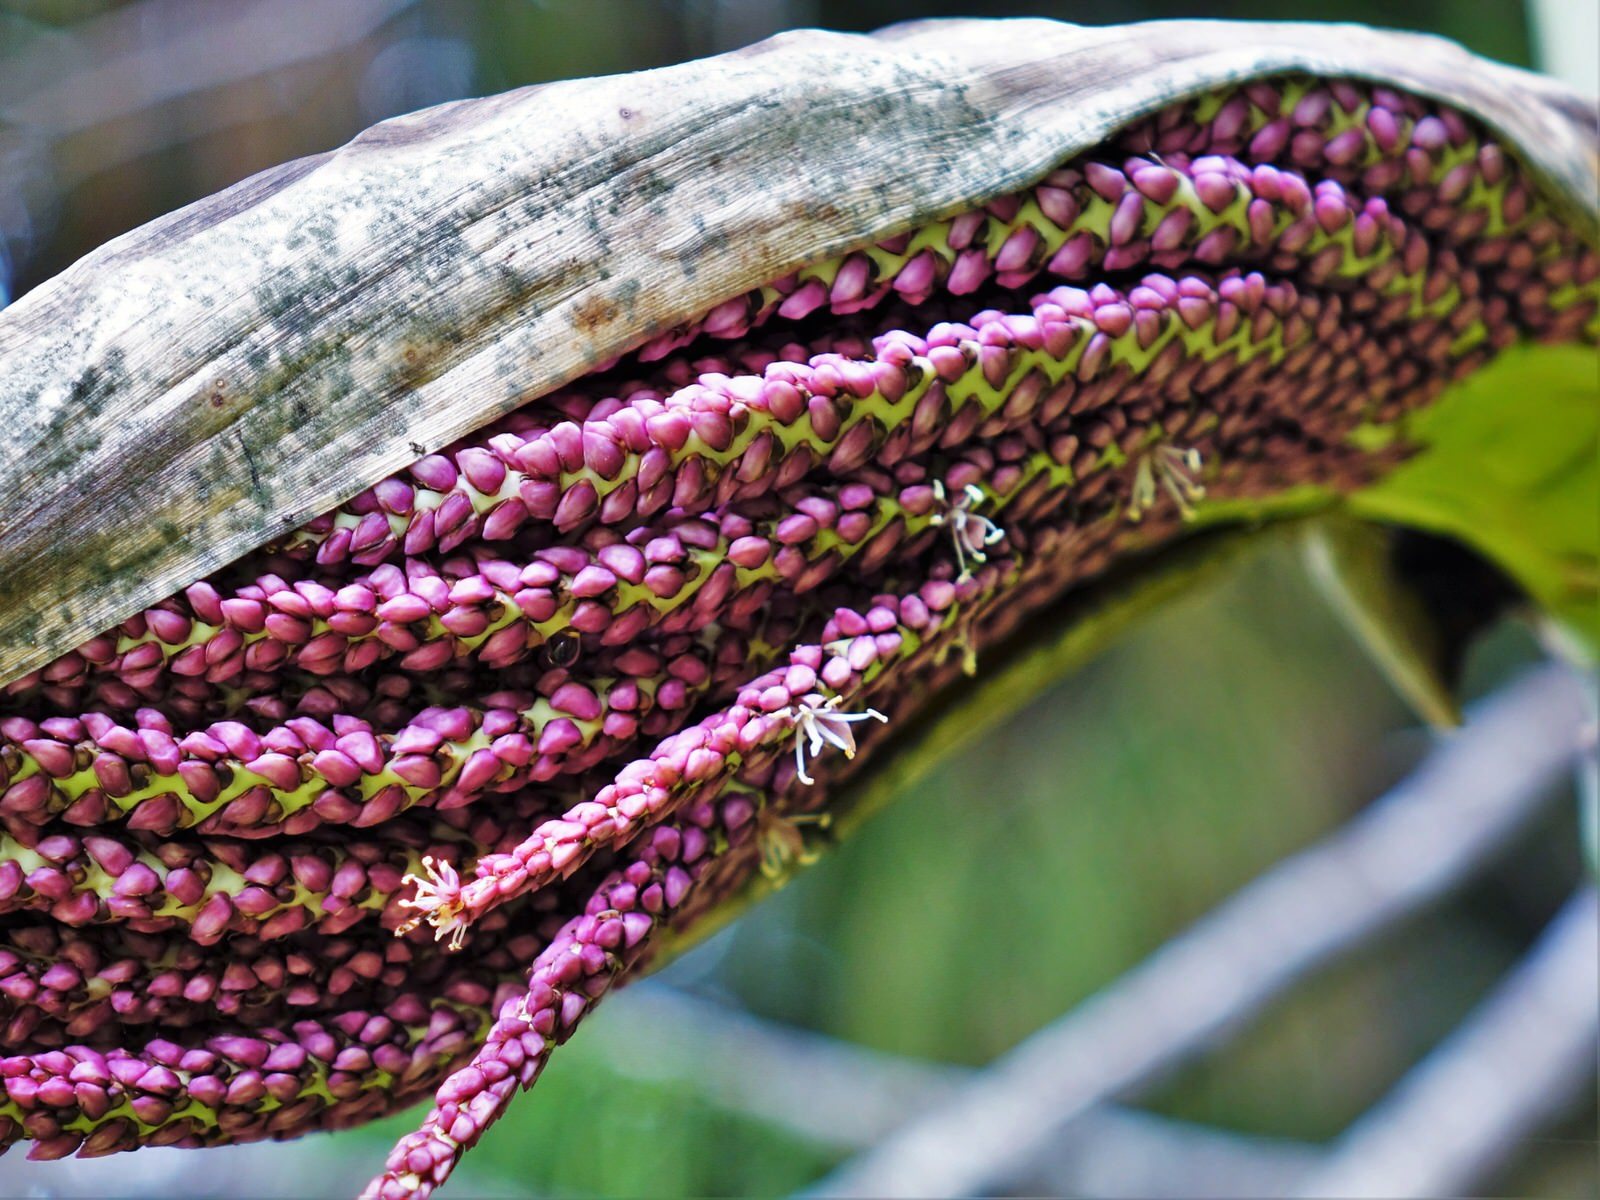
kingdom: Plantae
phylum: Tracheophyta
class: Liliopsida
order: Arecales
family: Arecaceae
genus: Rhopalostylis
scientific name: Rhopalostylis sapida
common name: Feather-duster palm
